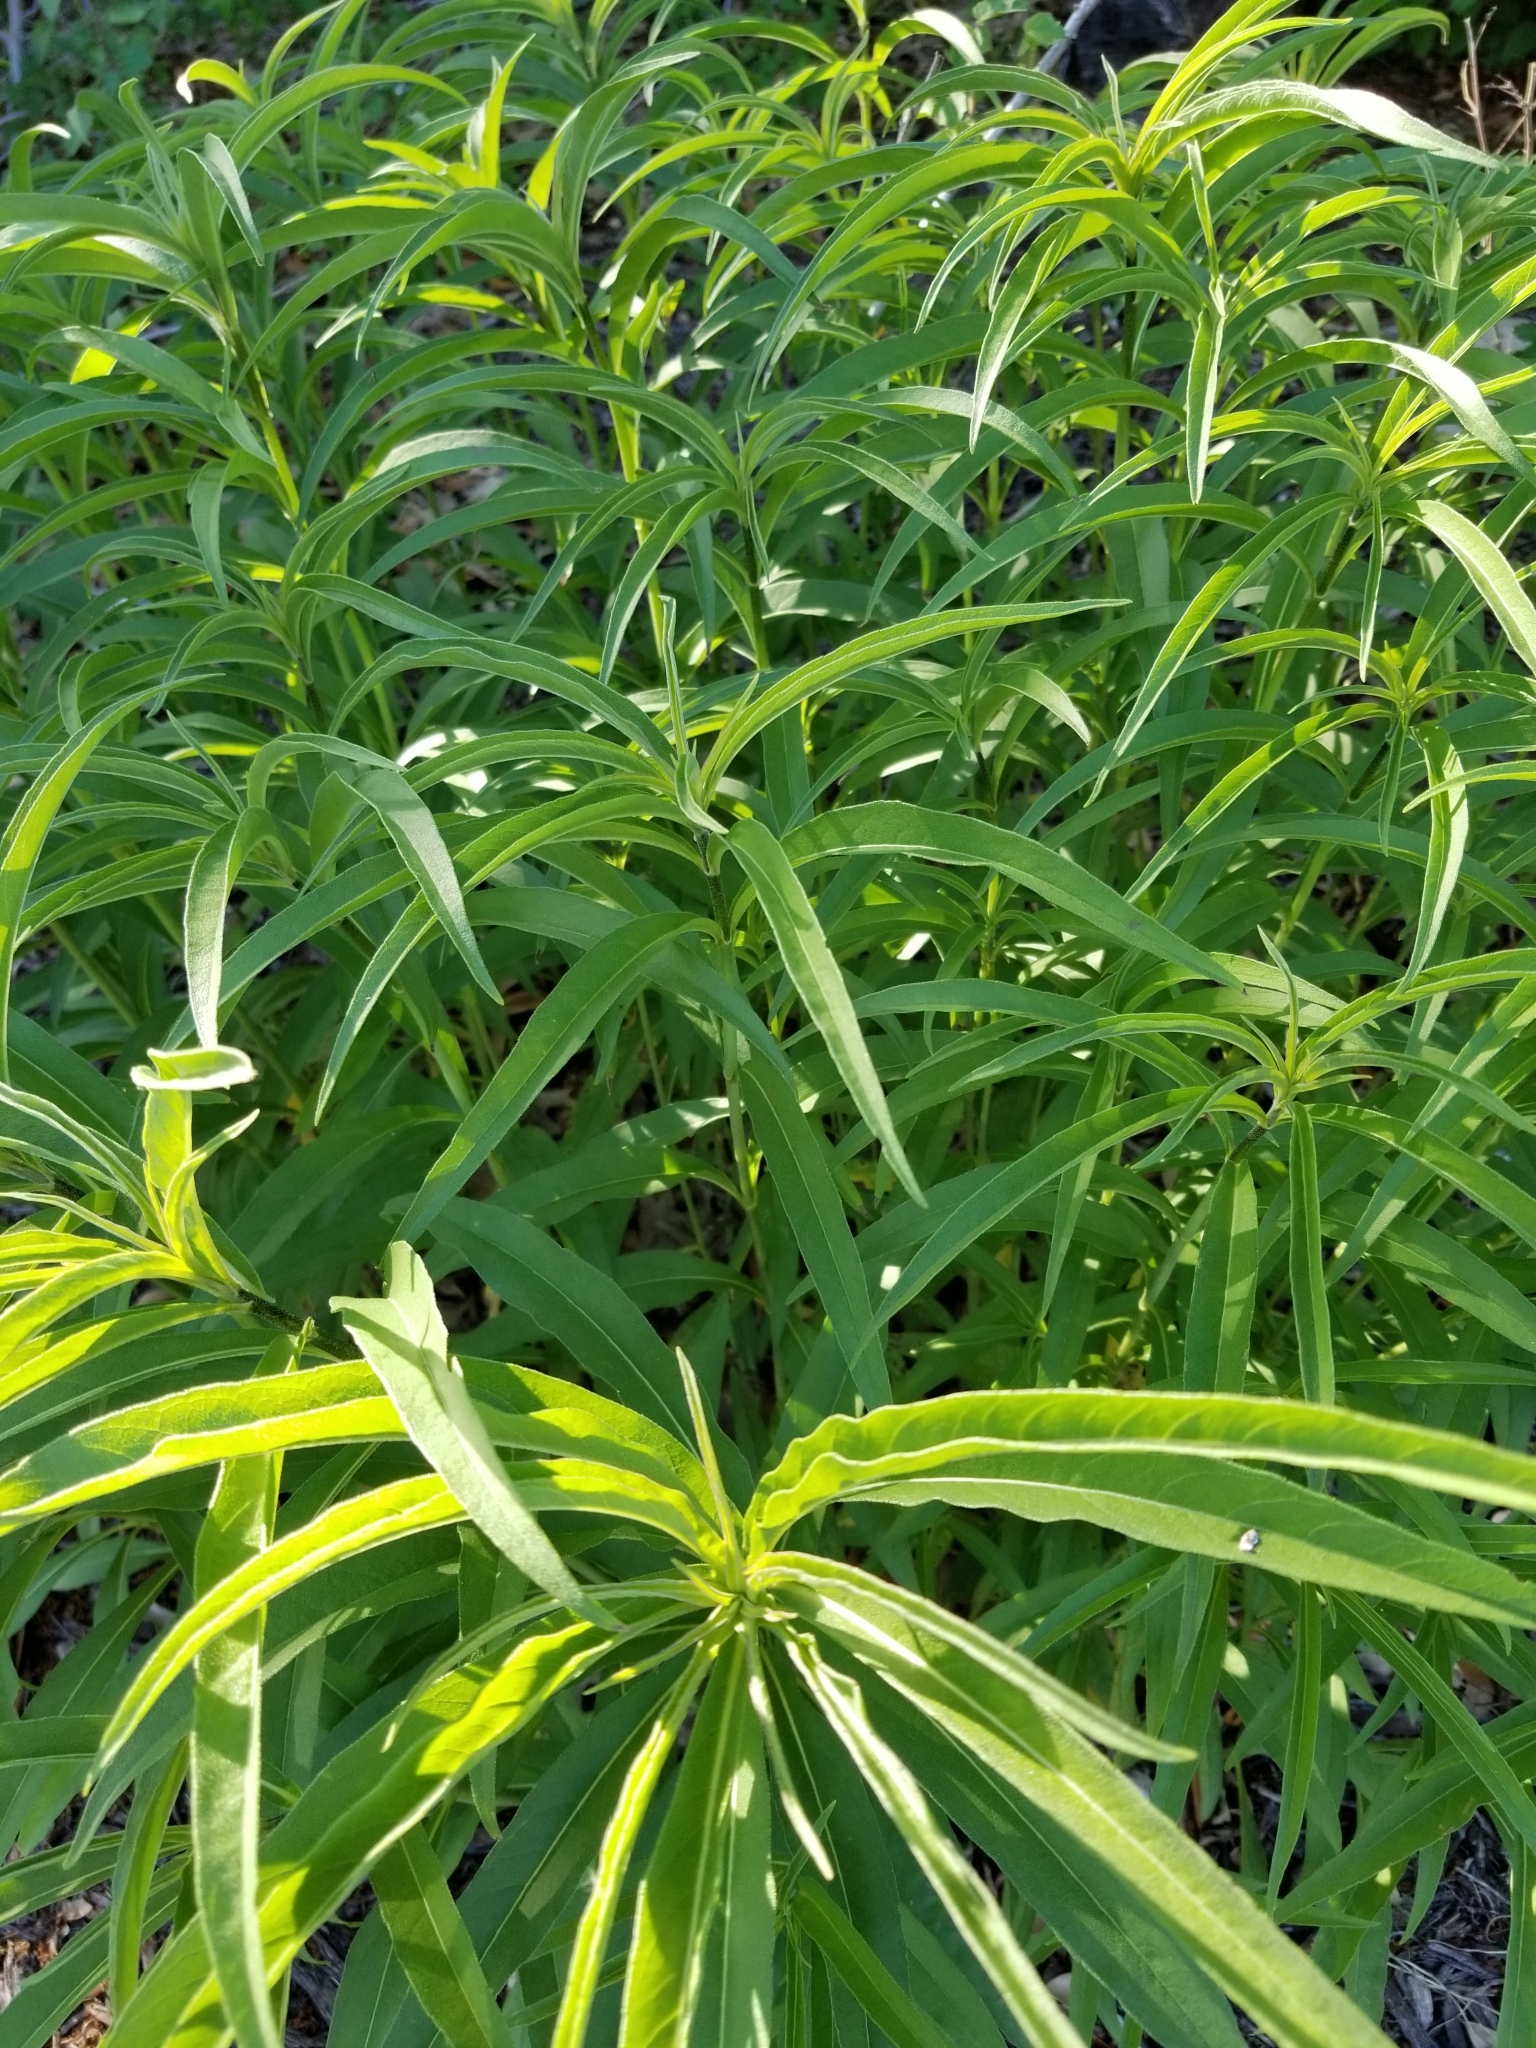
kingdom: Plantae
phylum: Tracheophyta
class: Magnoliopsida
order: Asterales
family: Asteraceae
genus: Helianthus
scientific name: Helianthus maximiliani
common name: Maximilian's sunflower
